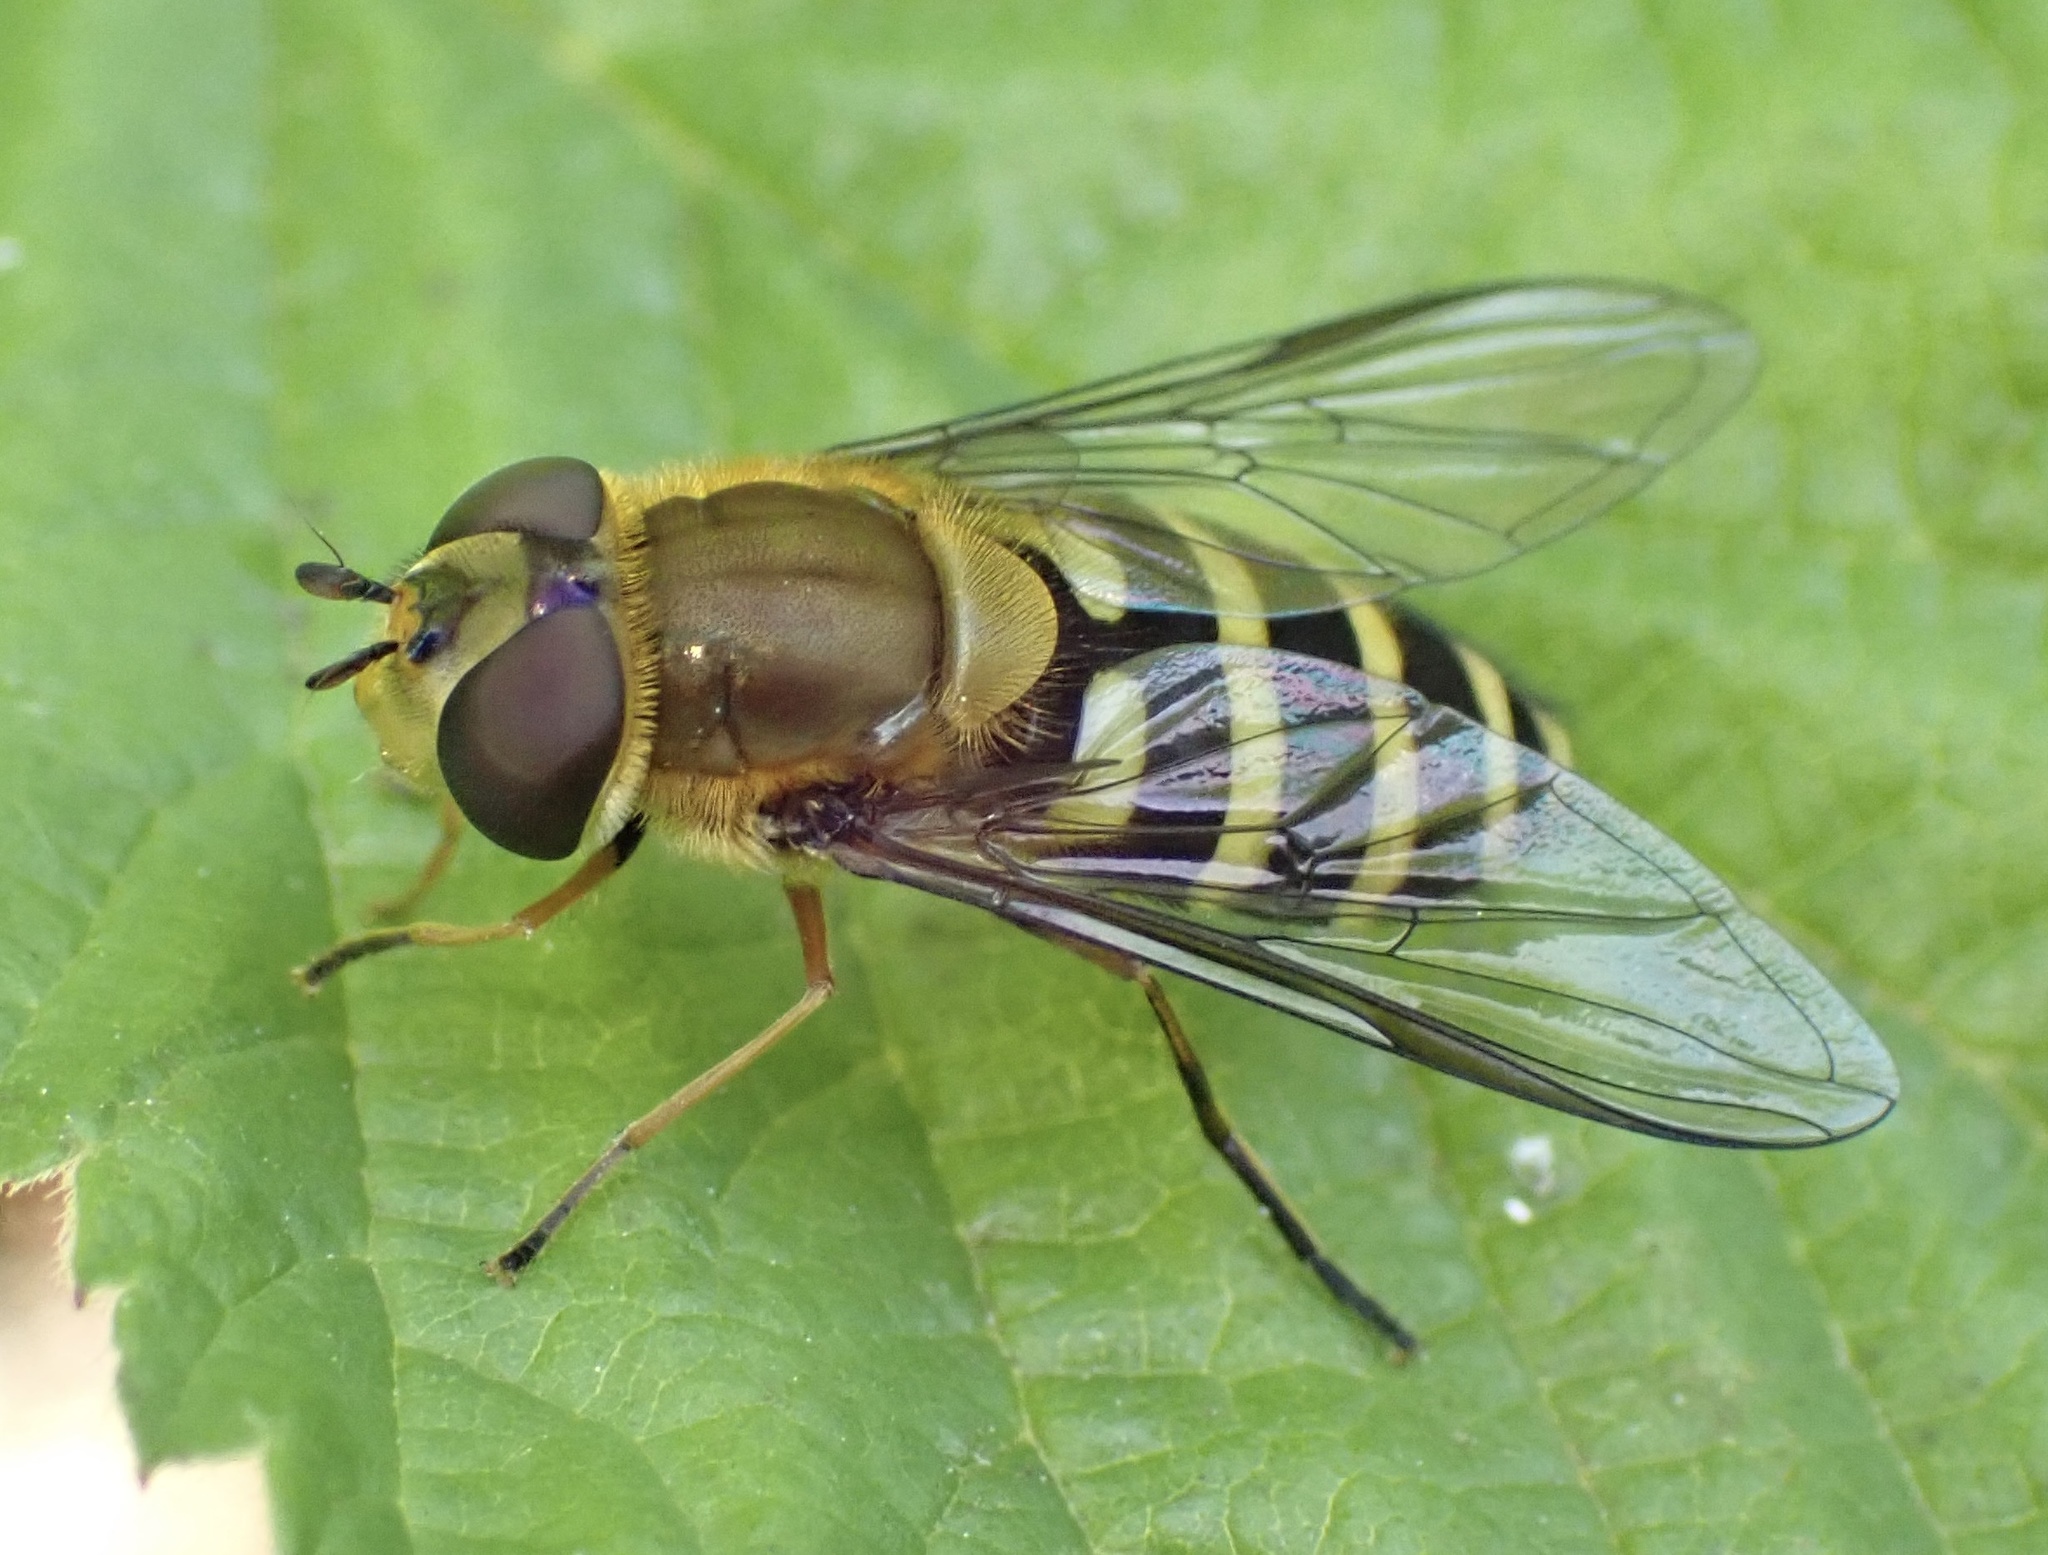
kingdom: Animalia
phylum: Arthropoda
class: Insecta
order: Diptera
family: Syrphidae
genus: Syrphus
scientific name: Syrphus torvus
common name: Hairy-eyed flower fly
